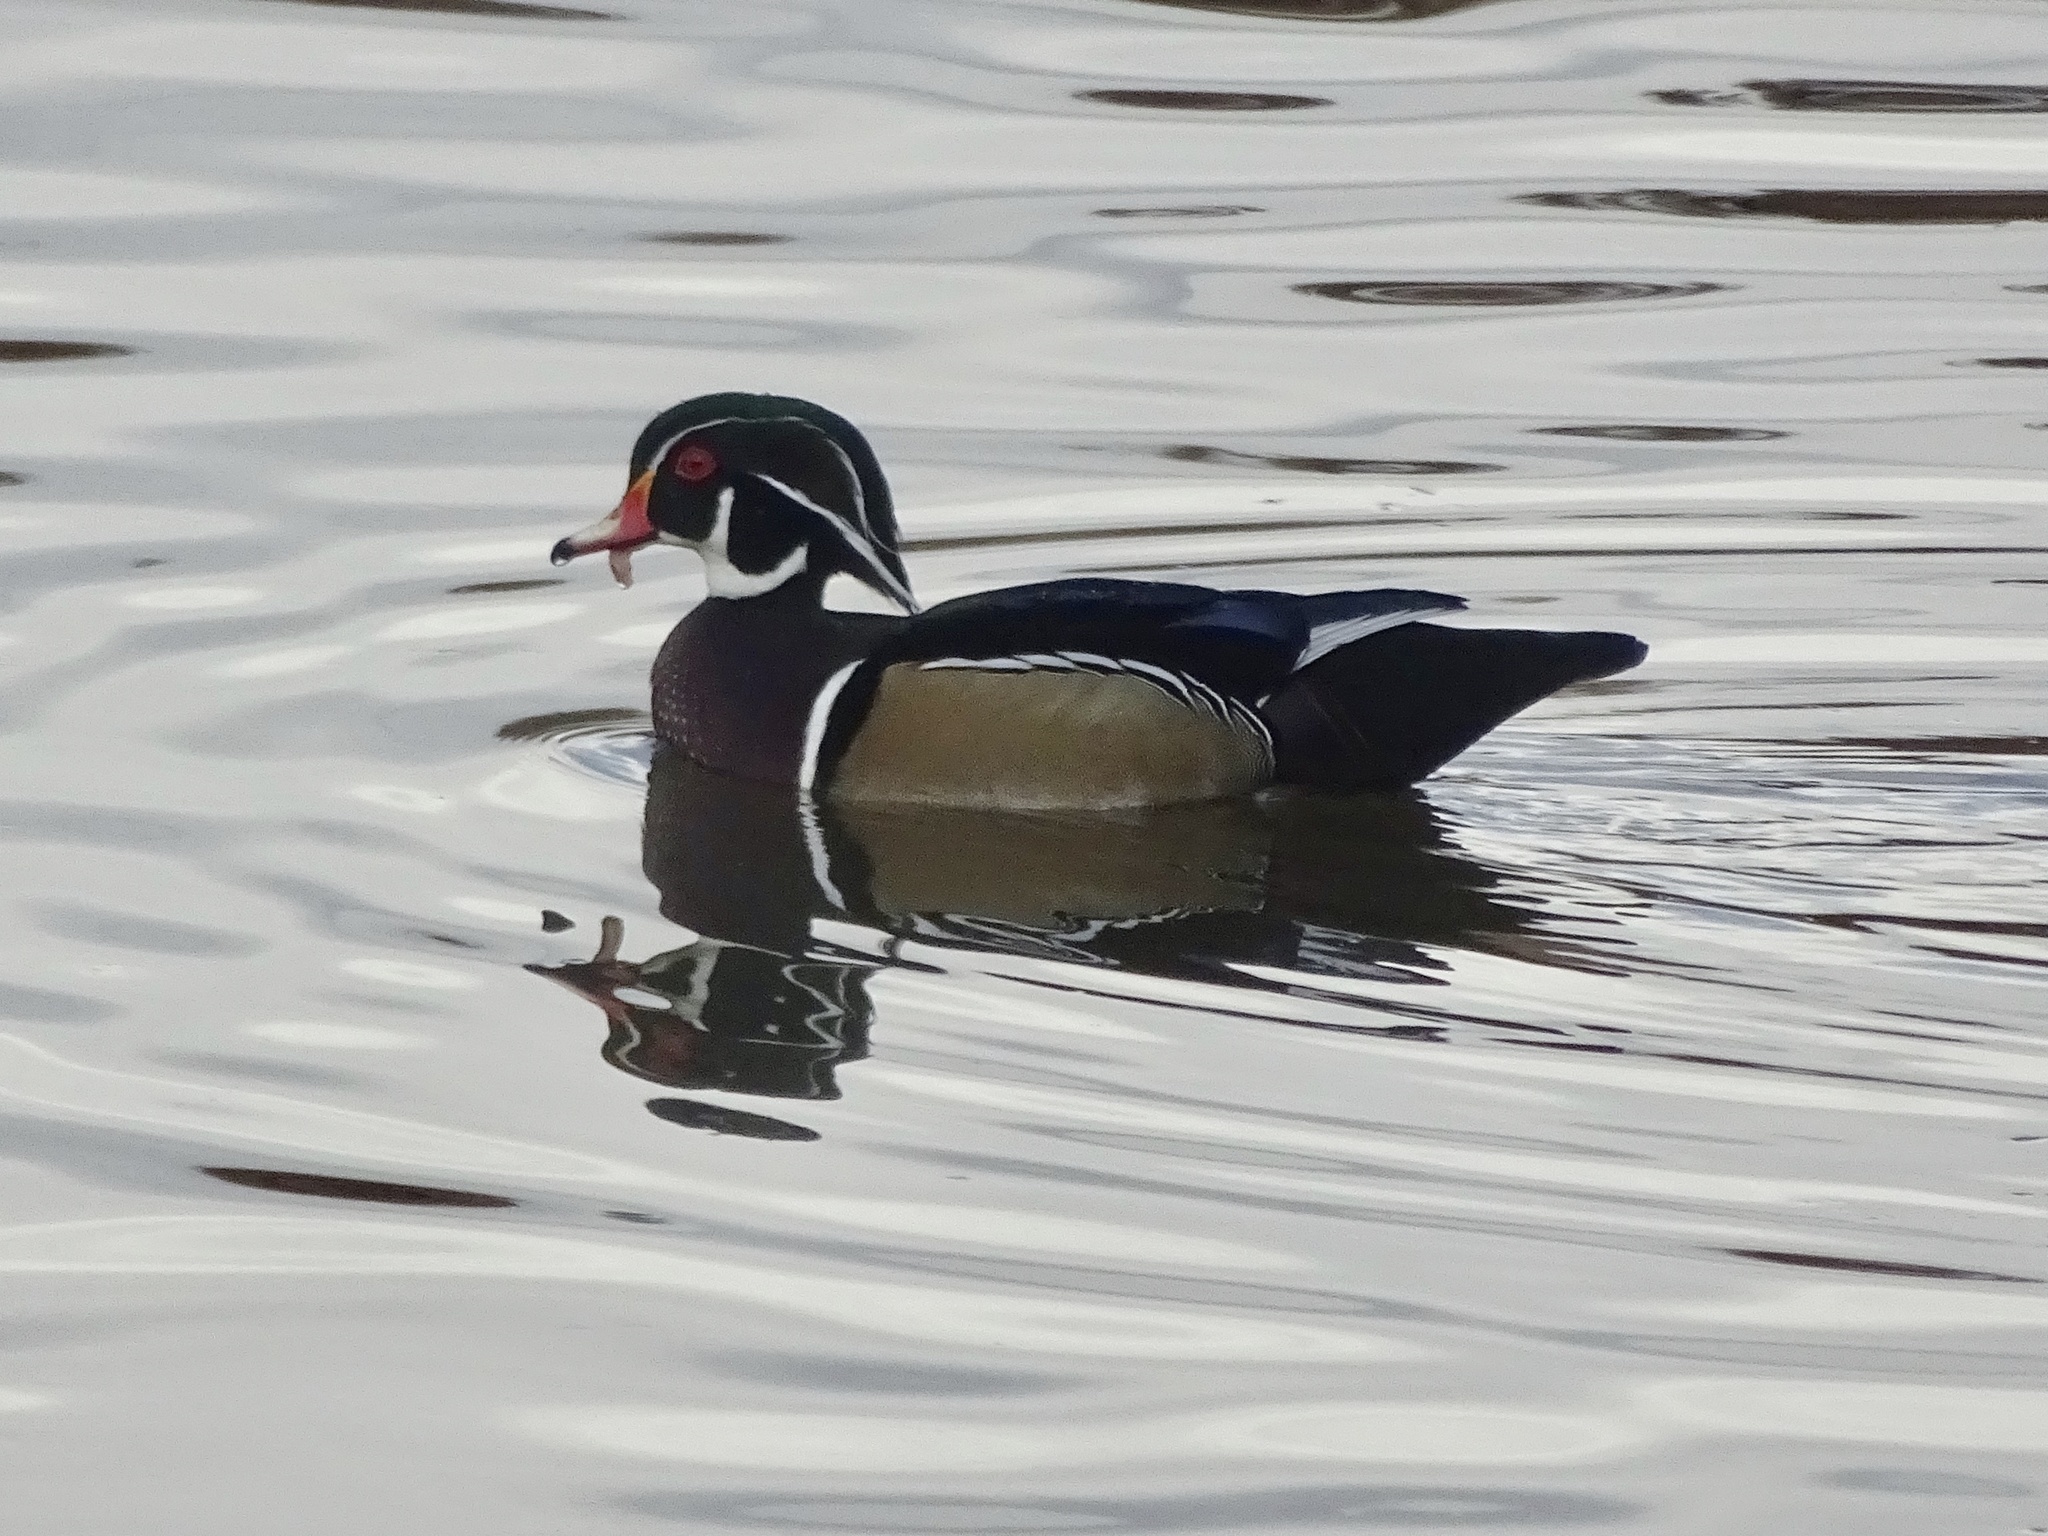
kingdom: Animalia
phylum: Chordata
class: Aves
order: Anseriformes
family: Anatidae
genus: Aix
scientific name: Aix sponsa
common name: Wood duck
